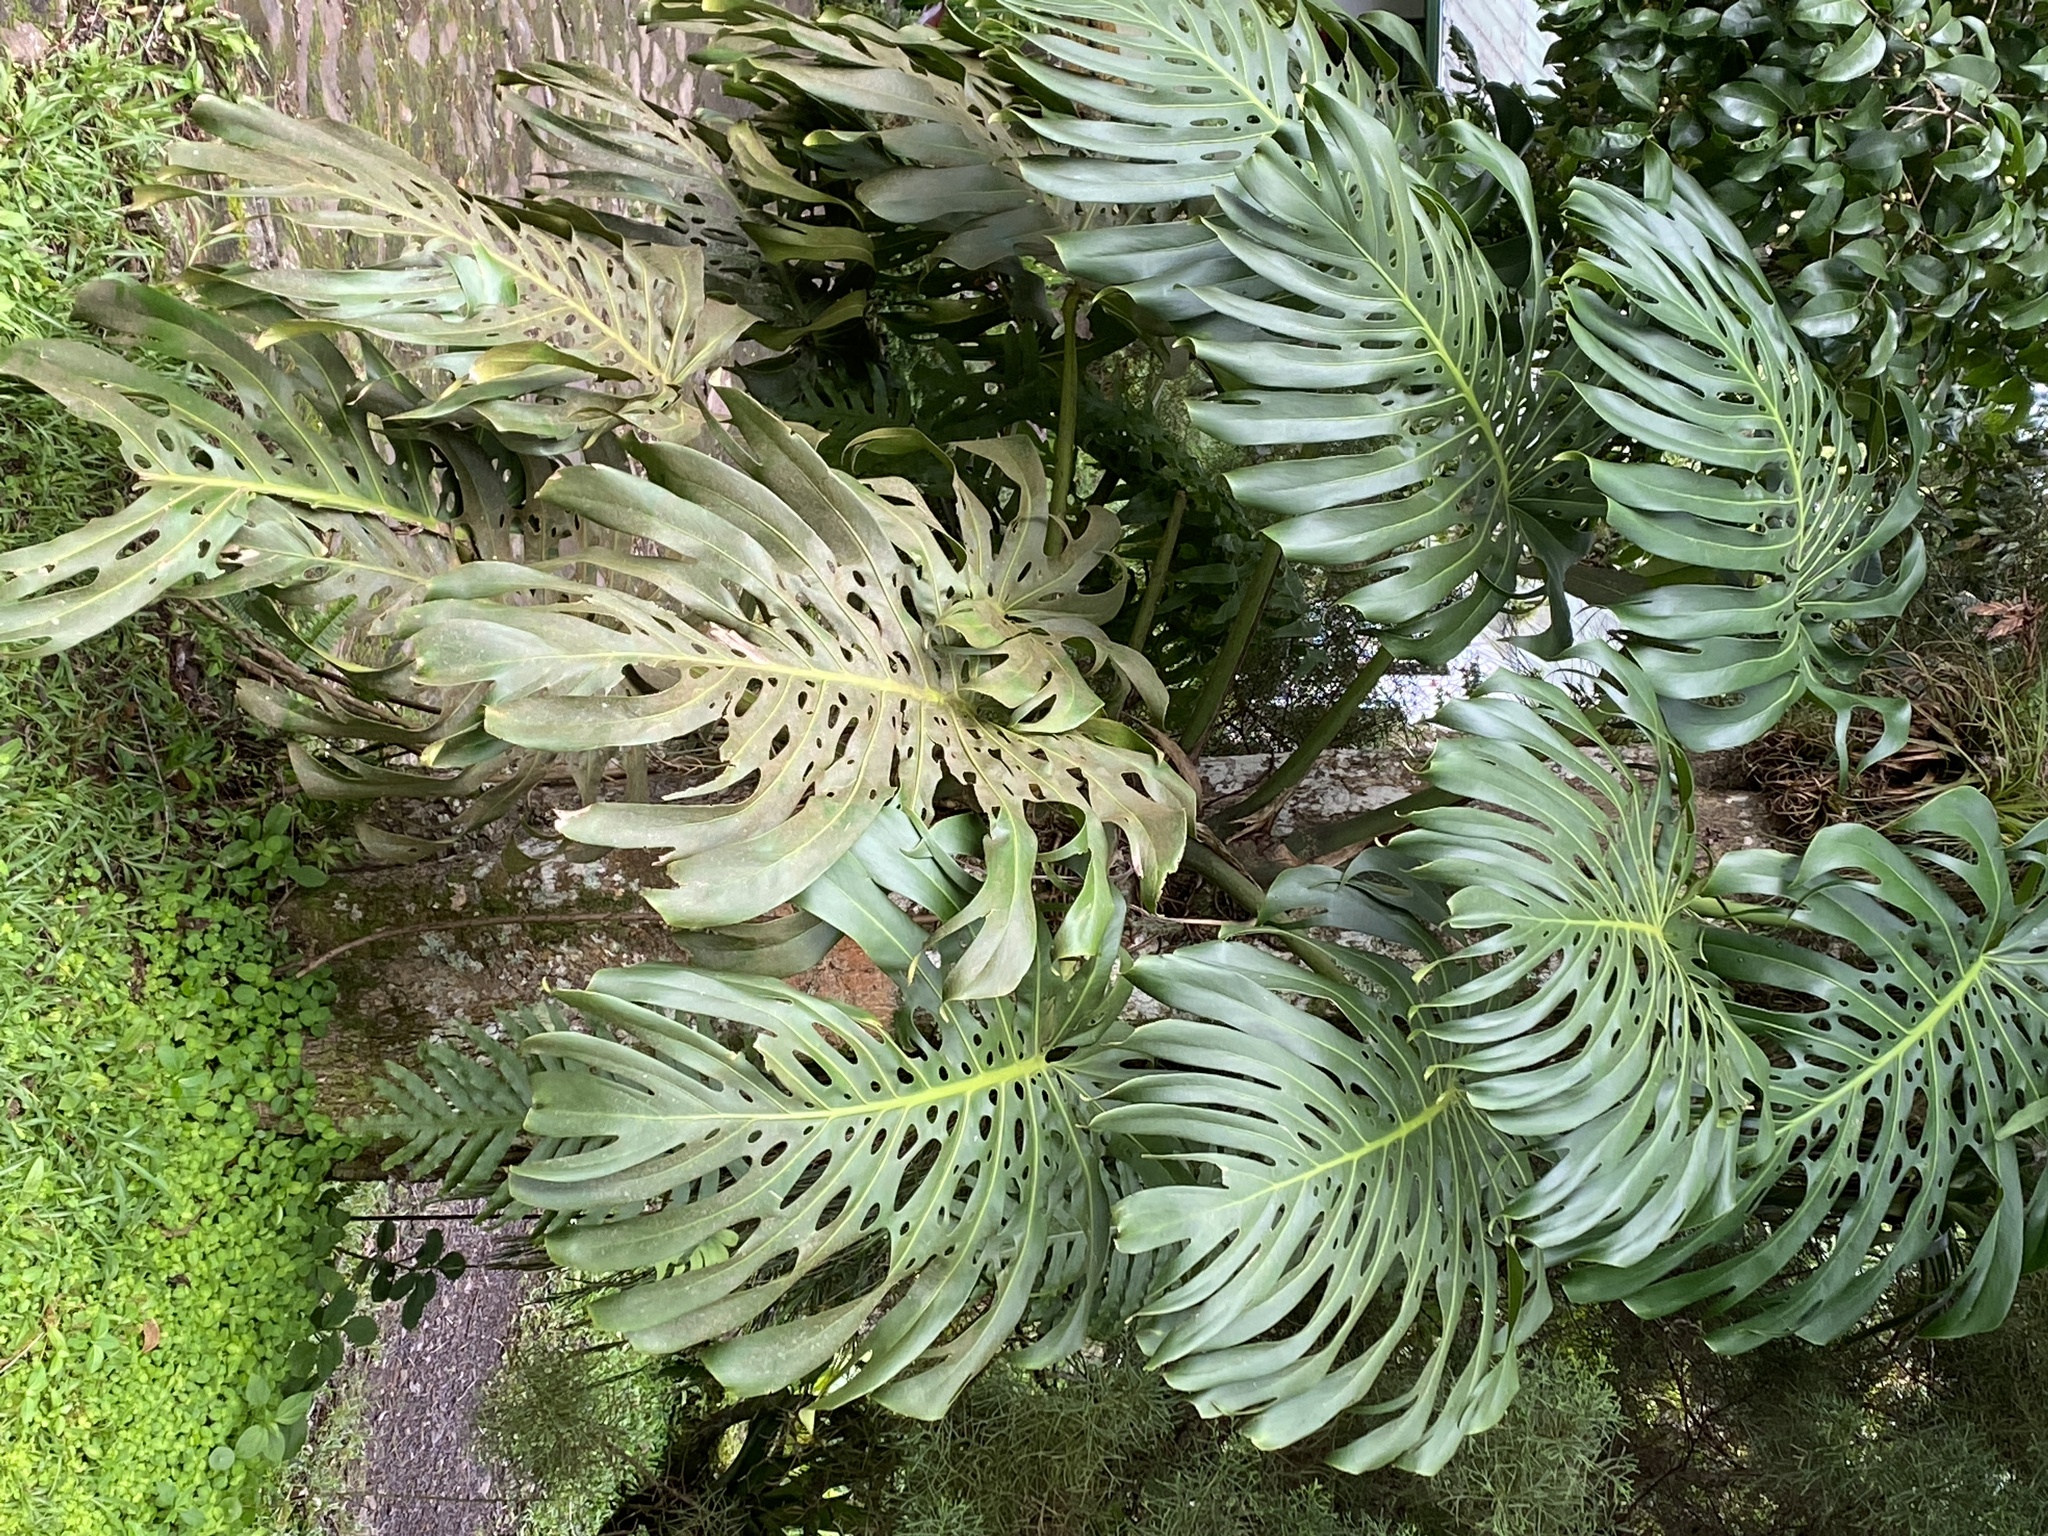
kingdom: Plantae
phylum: Tracheophyta
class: Liliopsida
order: Alismatales
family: Araceae
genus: Monstera
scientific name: Monstera deliciosa
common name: Cut-leaf-philodendron
